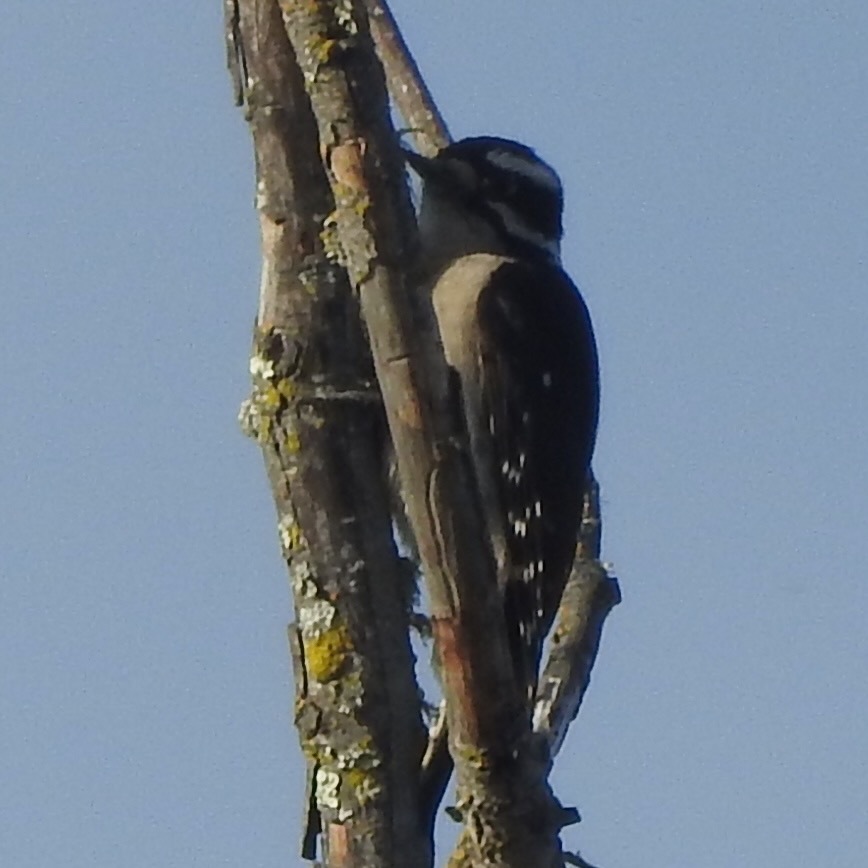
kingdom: Animalia
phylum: Chordata
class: Aves
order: Piciformes
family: Picidae
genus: Dryobates
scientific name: Dryobates pubescens
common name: Downy woodpecker
